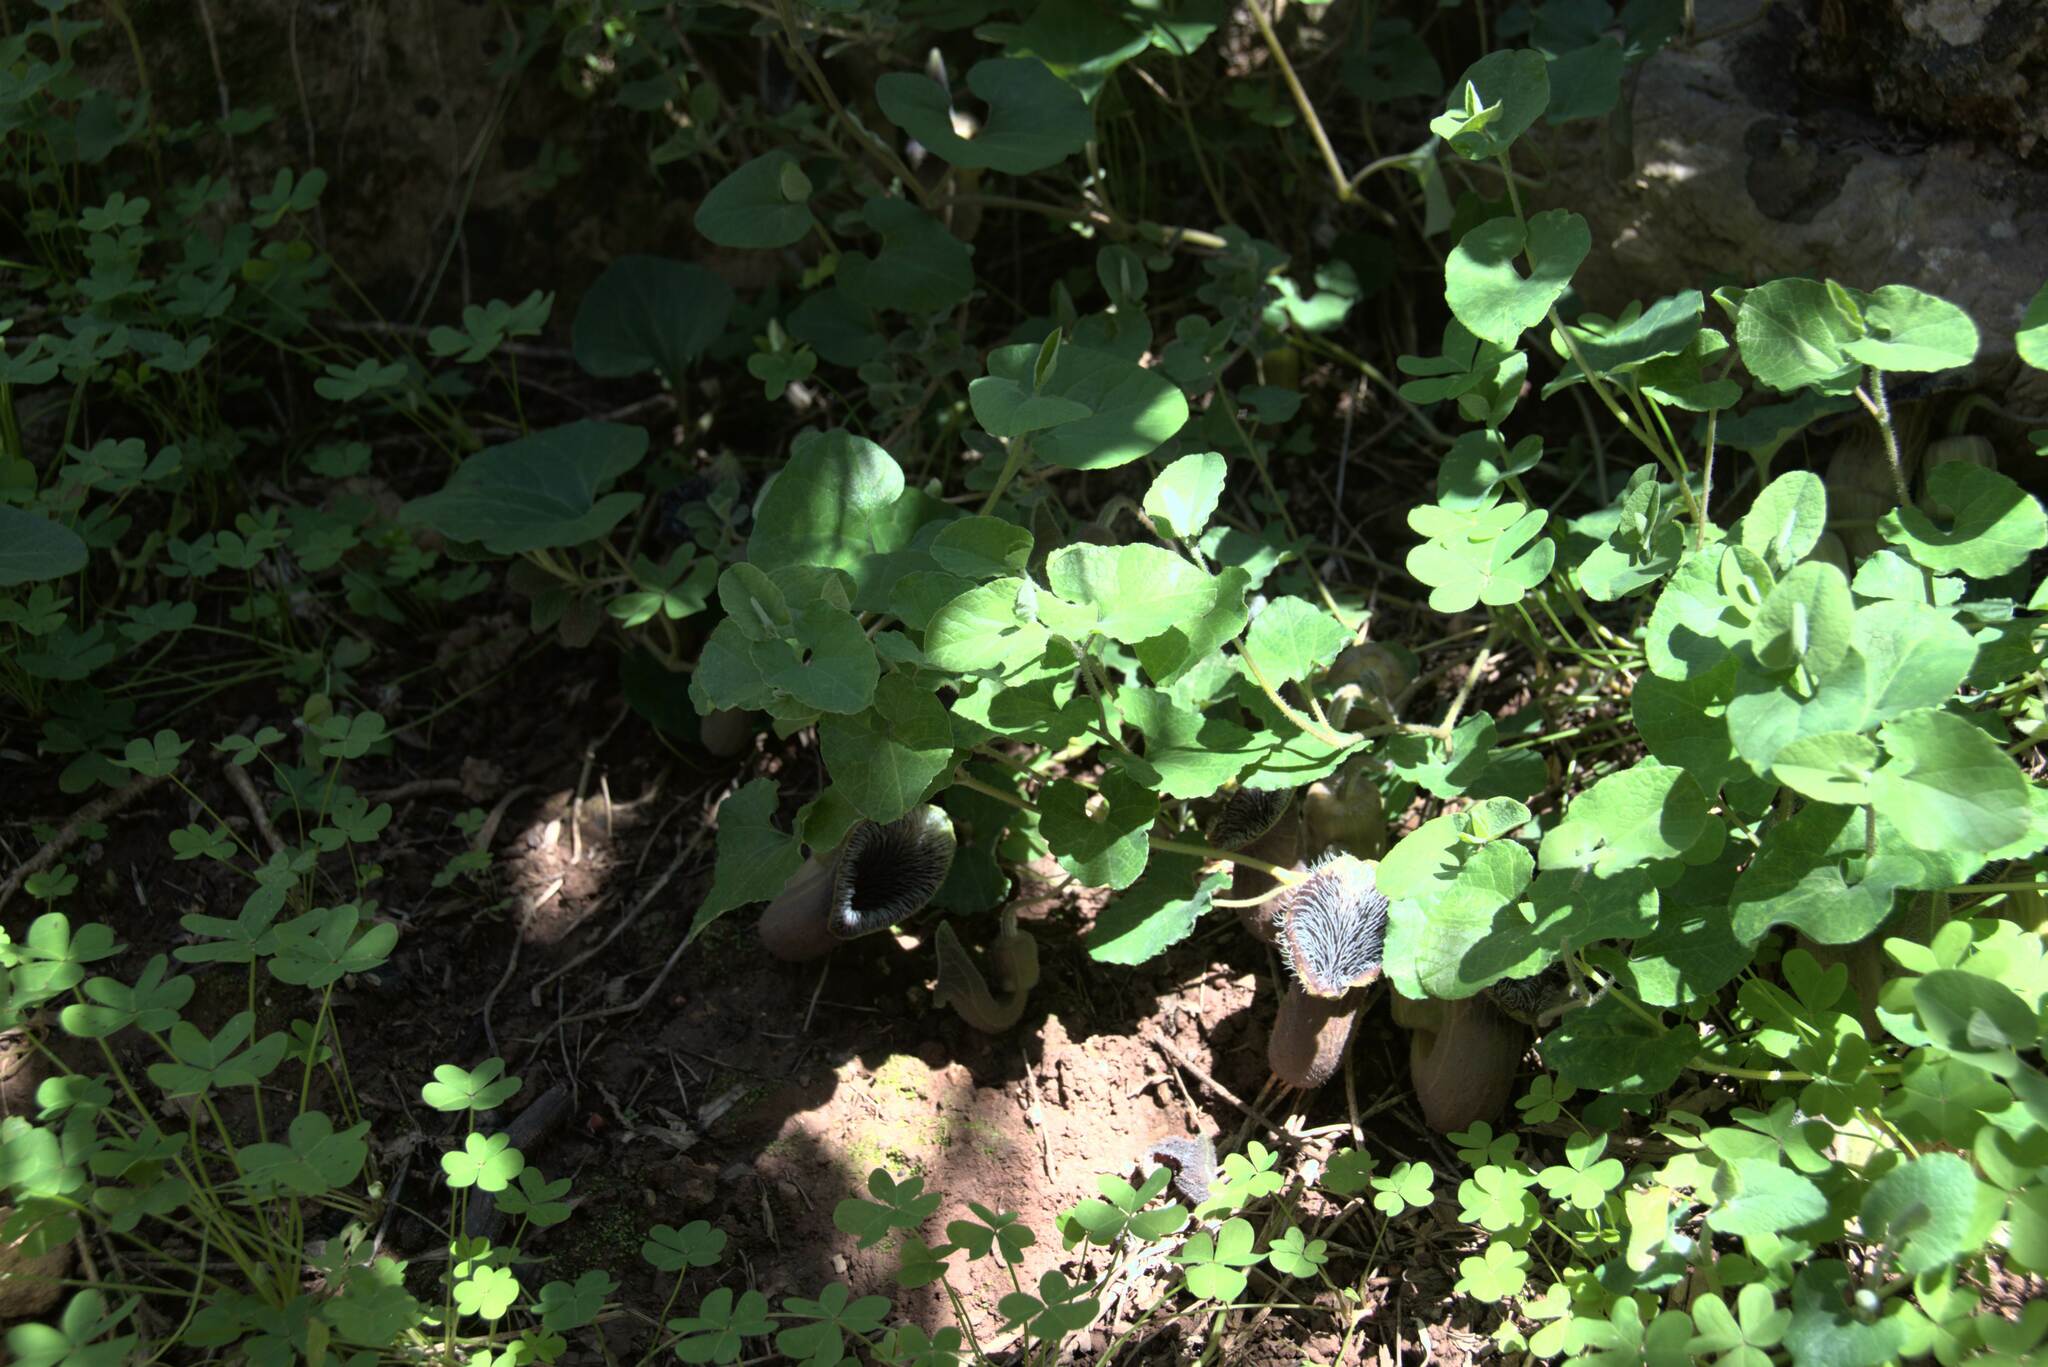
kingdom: Plantae
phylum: Tracheophyta
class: Magnoliopsida
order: Piperales
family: Aristolochiaceae
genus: Aristolochia
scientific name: Aristolochia cretica
